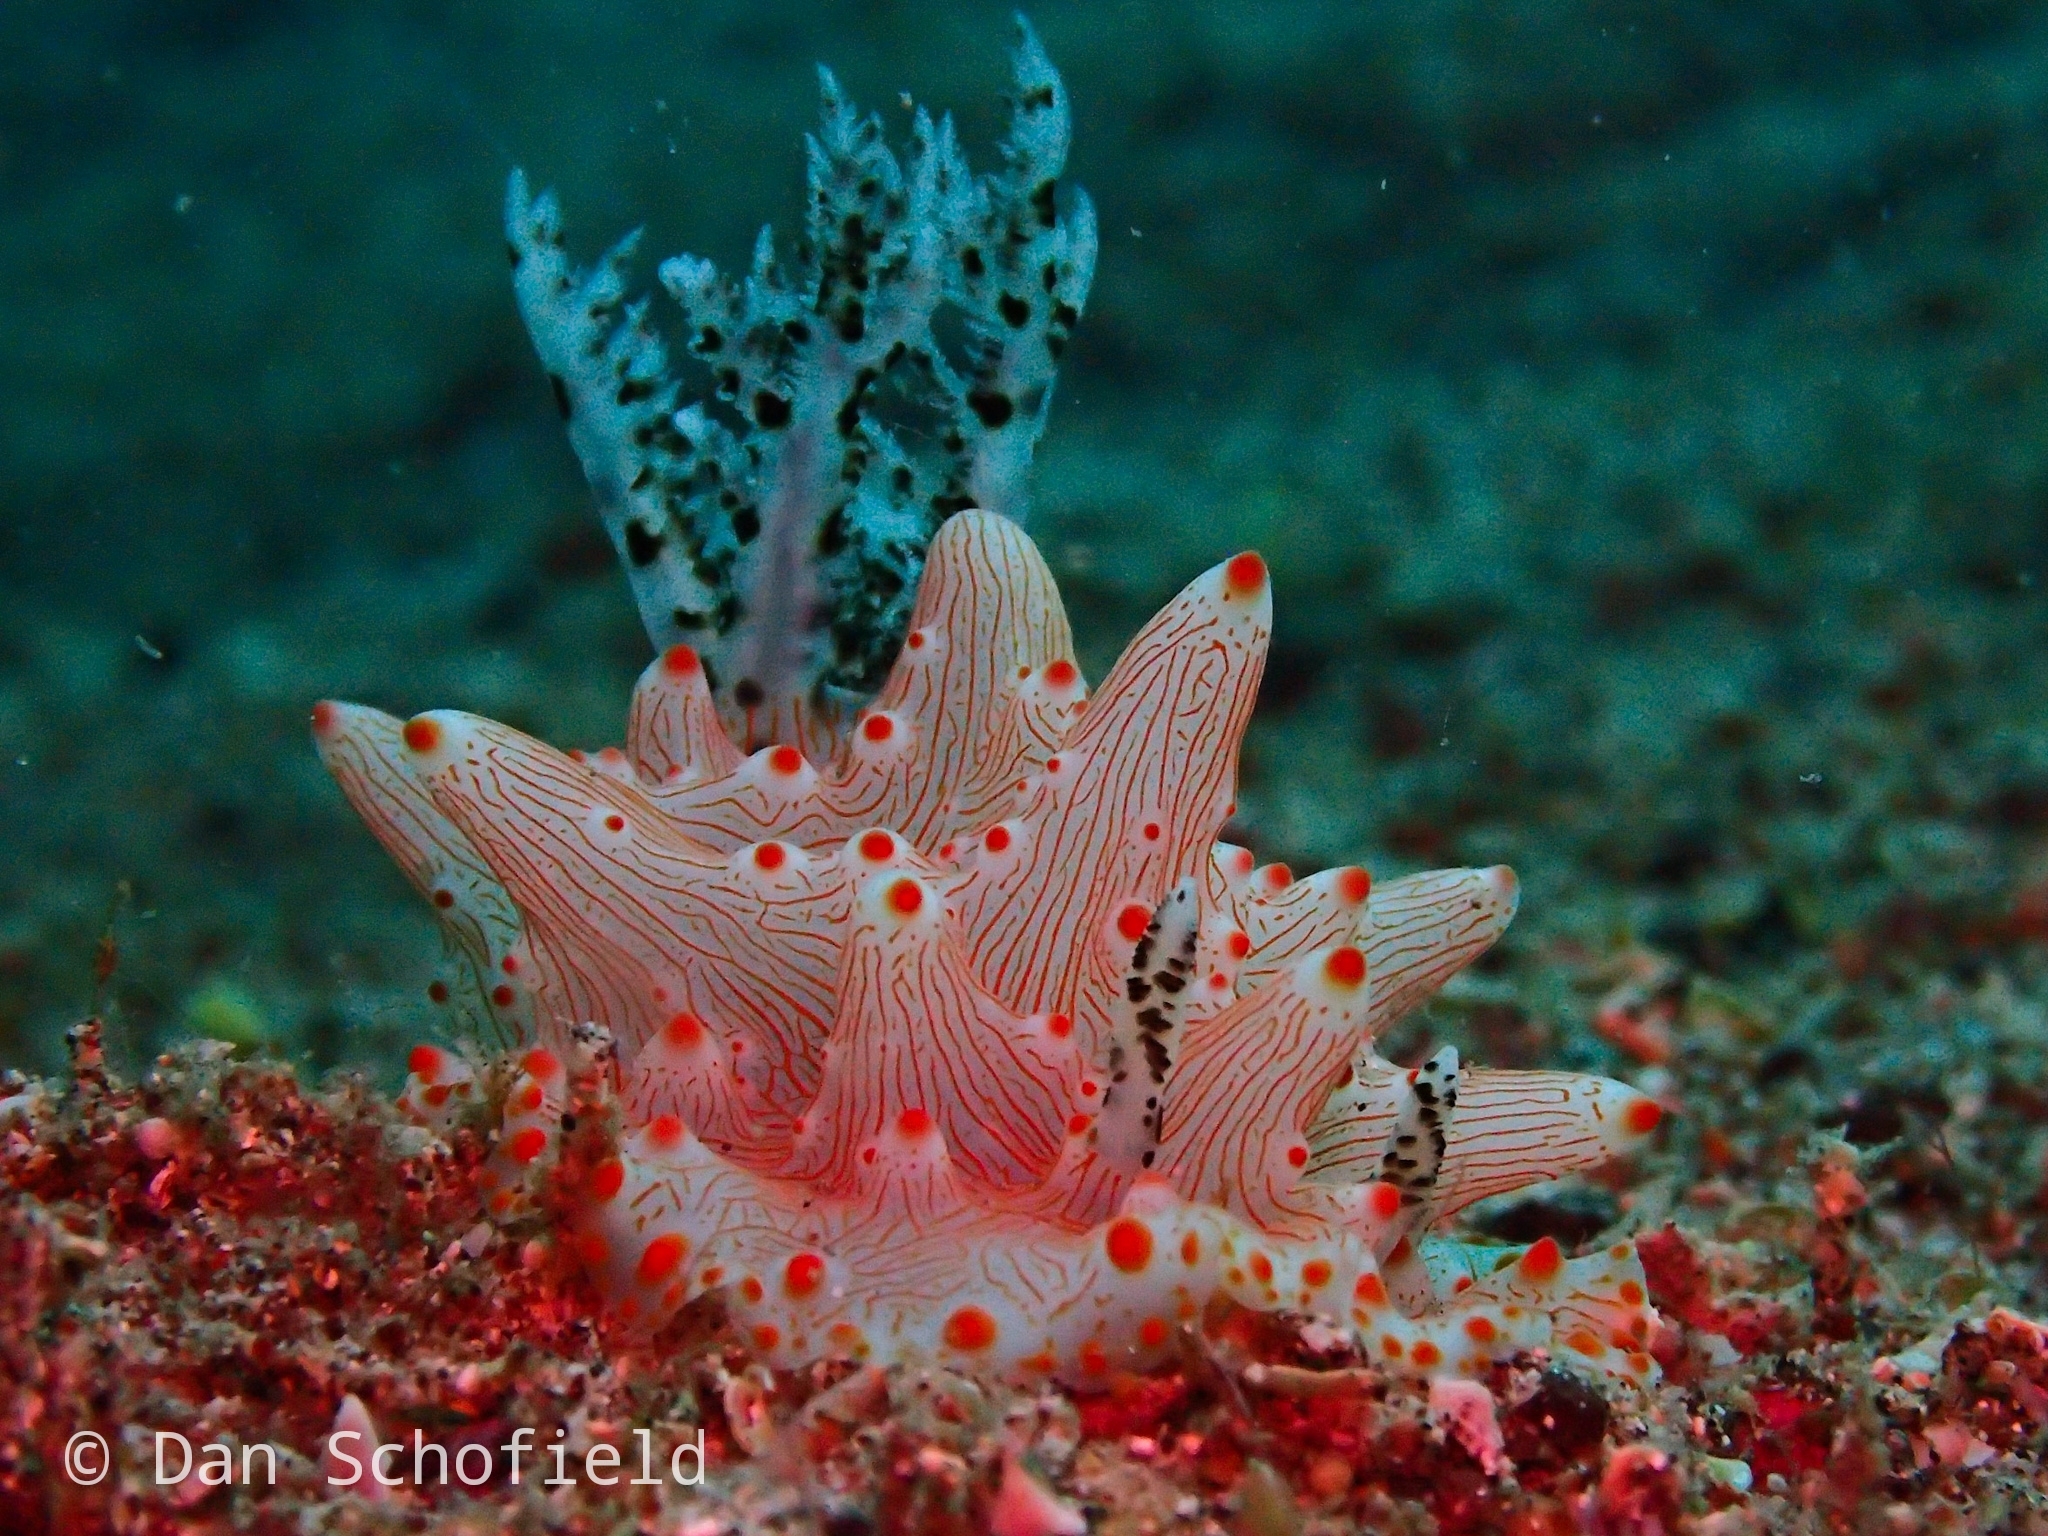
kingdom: Animalia
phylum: Mollusca
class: Gastropoda
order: Nudibranchia
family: Discodorididae
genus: Halgerda
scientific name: Halgerda batangas
